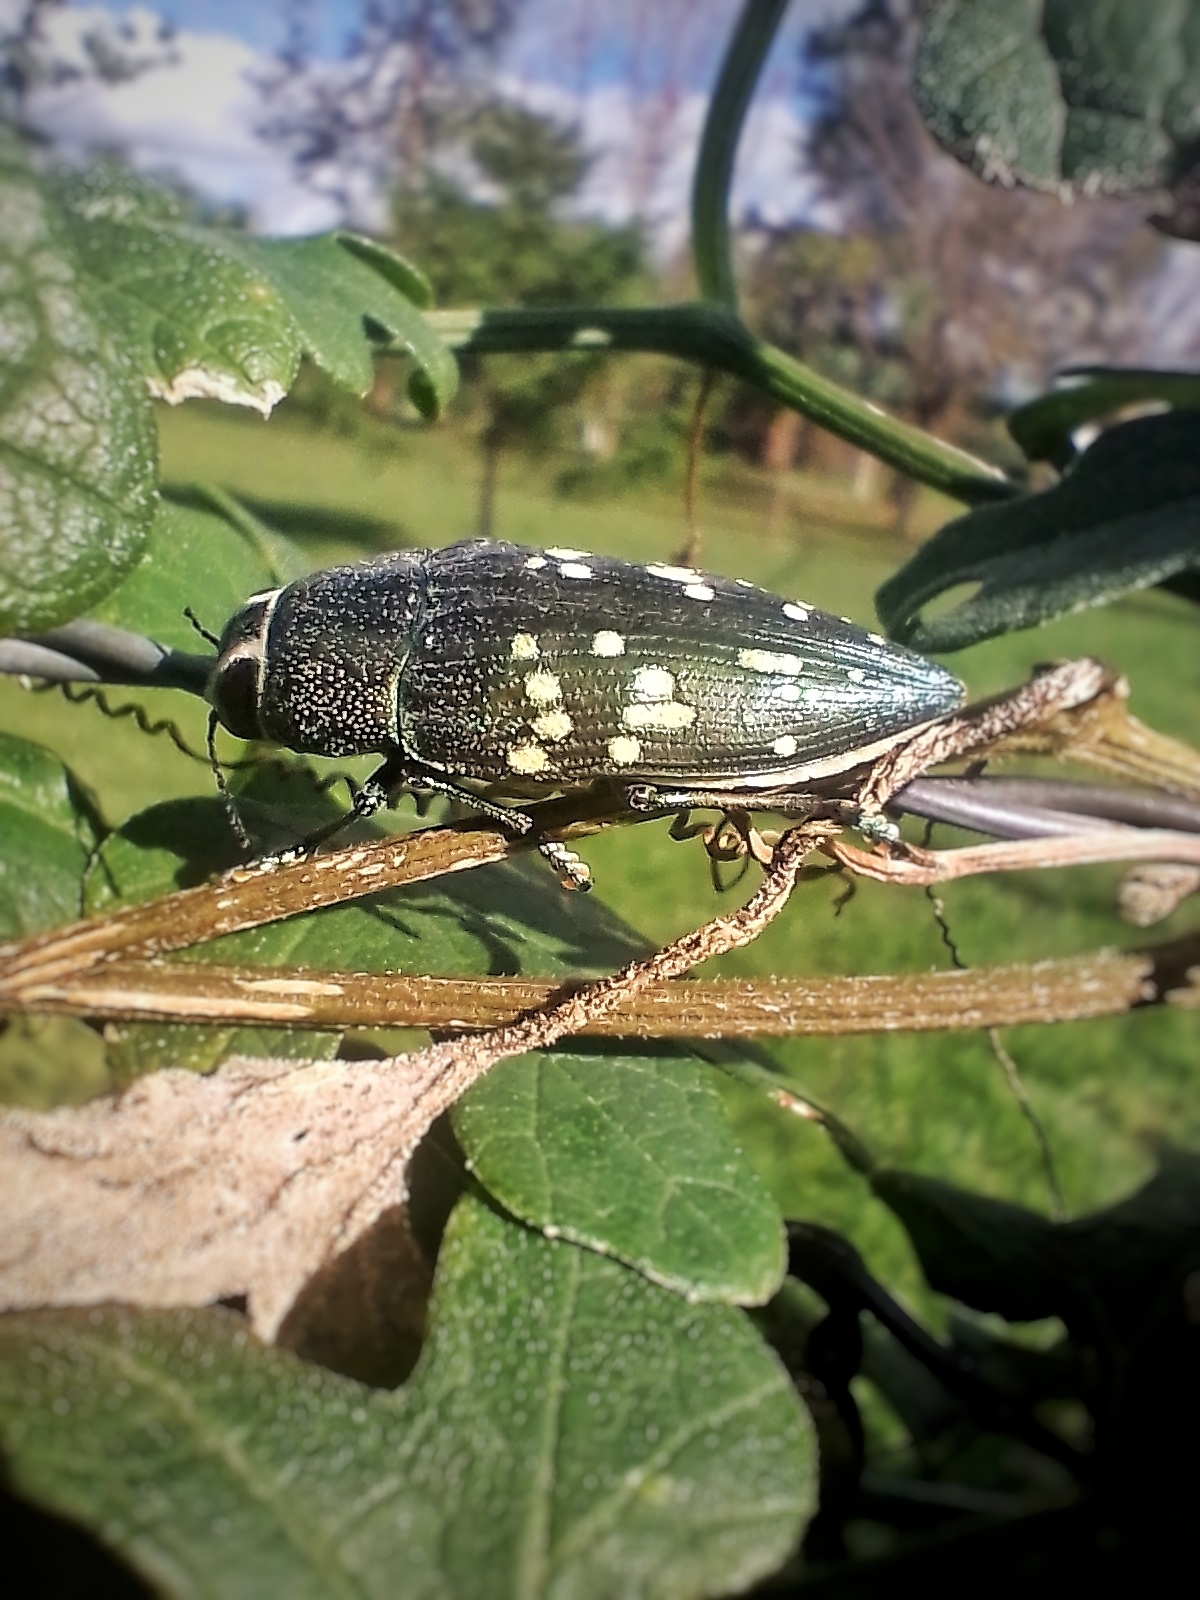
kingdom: Animalia
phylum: Arthropoda
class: Insecta
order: Coleoptera
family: Buprestidae
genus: Lampetis
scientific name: Lampetis tucumana
